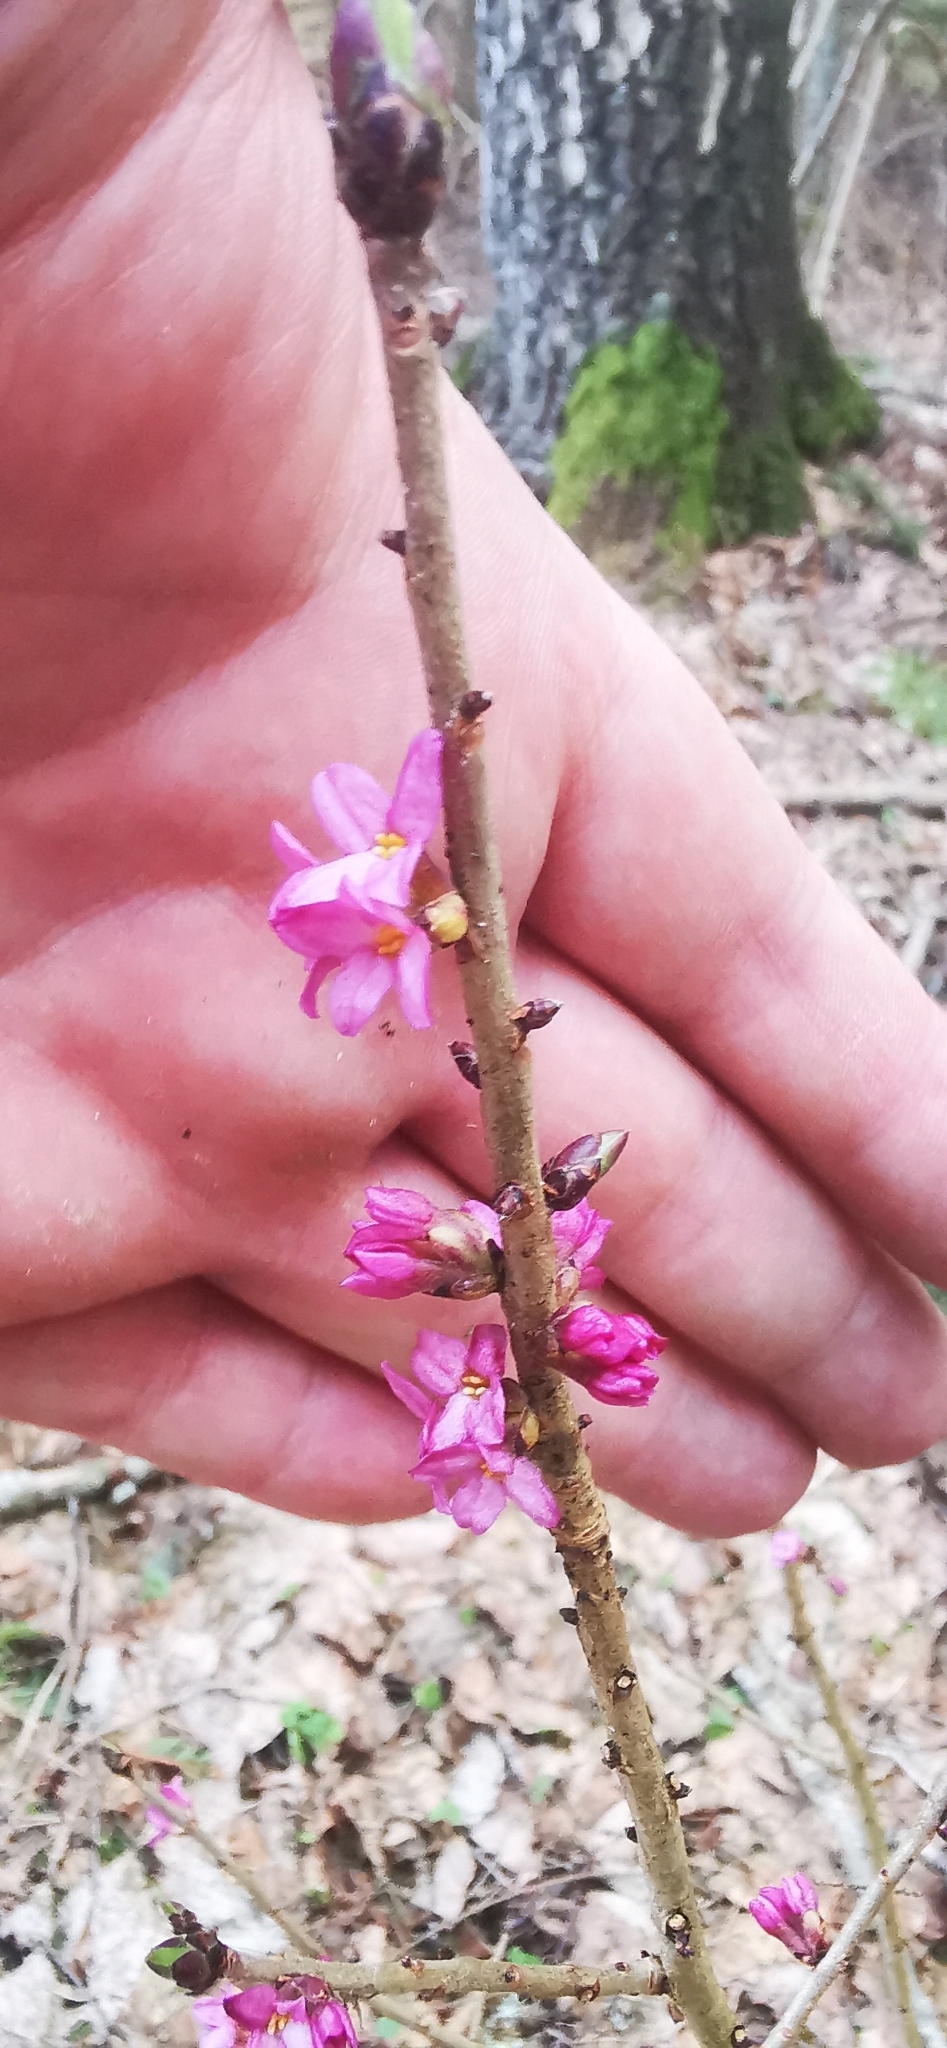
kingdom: Plantae
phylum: Tracheophyta
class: Magnoliopsida
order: Malvales
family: Thymelaeaceae
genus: Daphne
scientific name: Daphne mezereum
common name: Mezereon
